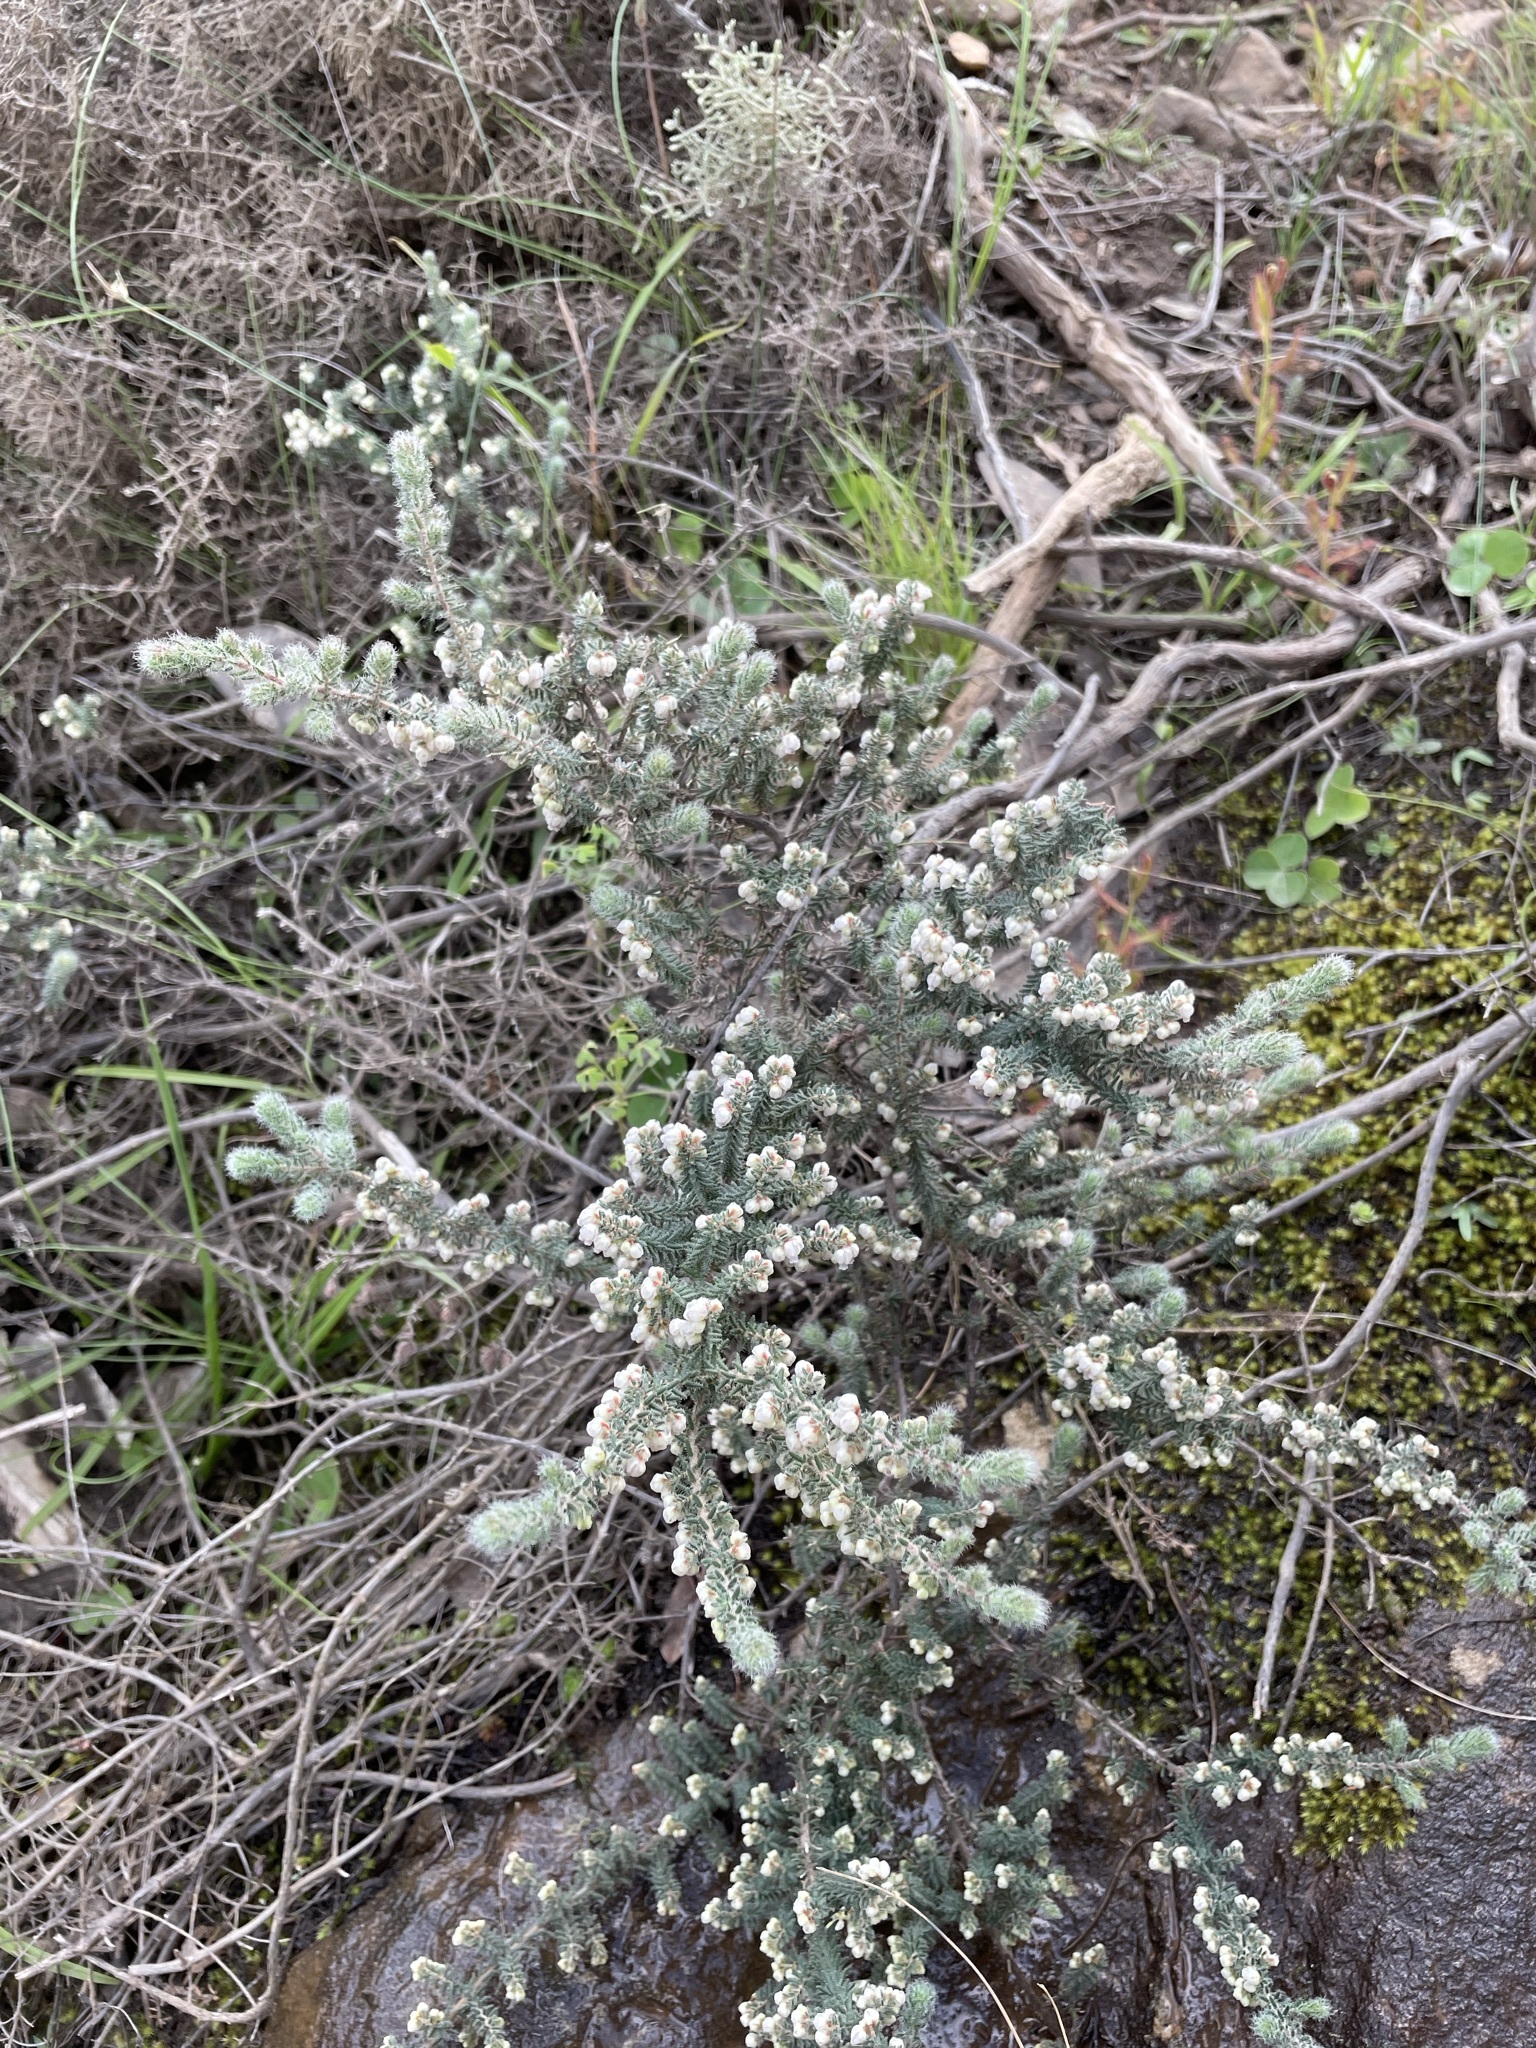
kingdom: Plantae
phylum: Tracheophyta
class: Magnoliopsida
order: Ericales
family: Ericaceae
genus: Erica
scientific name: Erica totta
